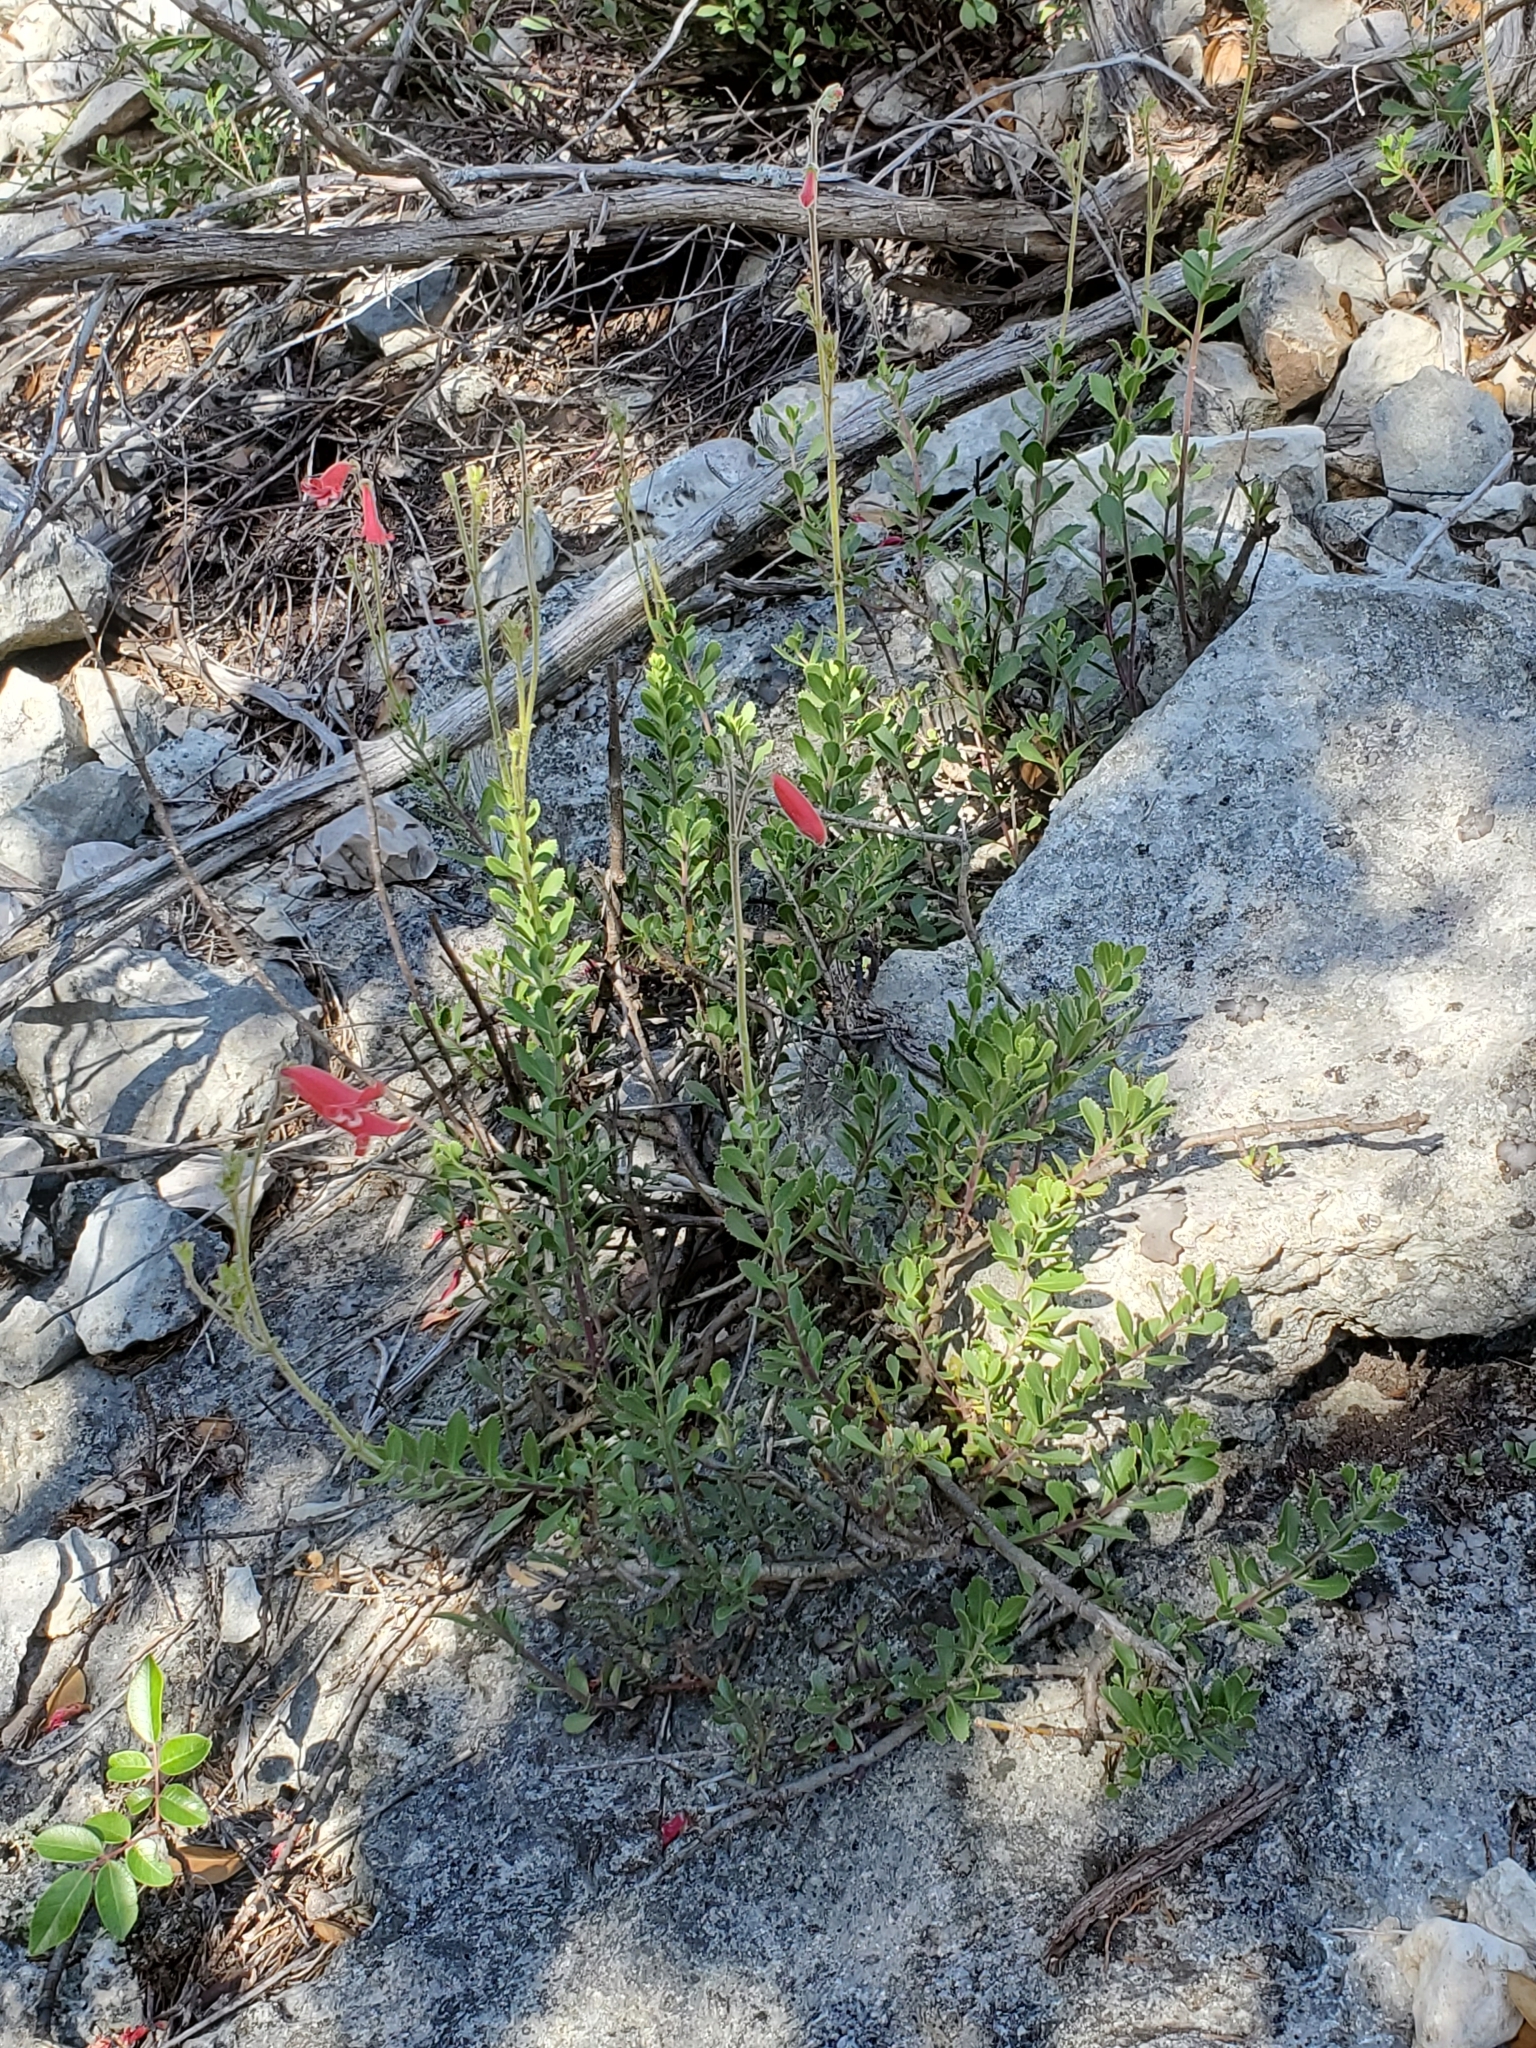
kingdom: Plantae
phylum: Tracheophyta
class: Magnoliopsida
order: Lamiales
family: Plantaginaceae
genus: Penstemon
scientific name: Penstemon baccharifolius
